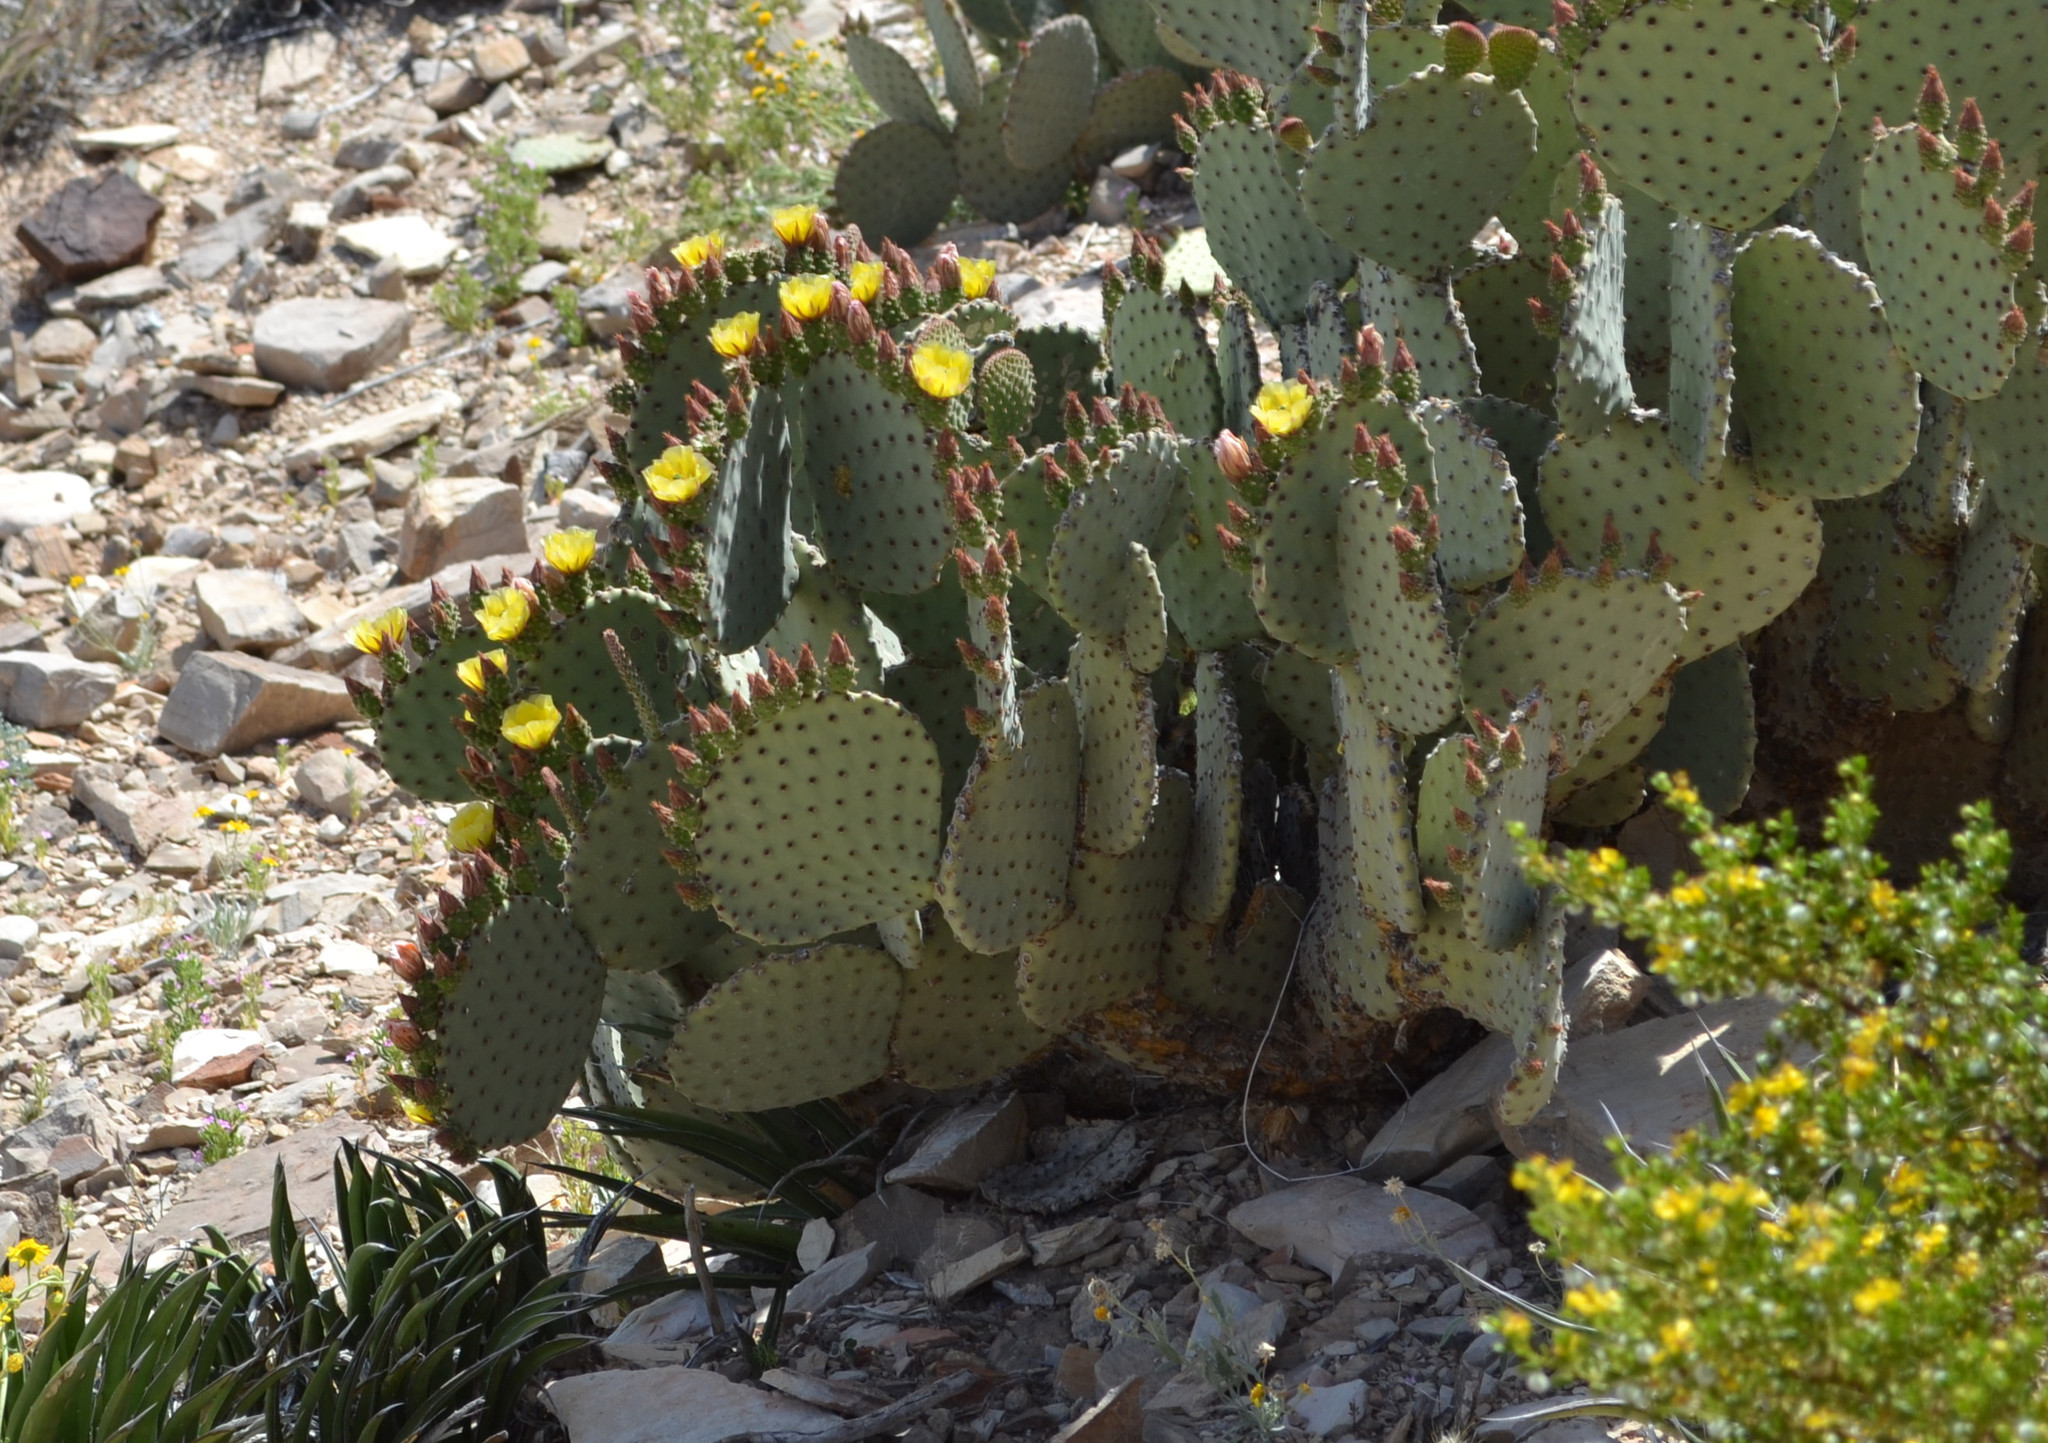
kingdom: Plantae
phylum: Tracheophyta
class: Magnoliopsida
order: Caryophyllales
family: Cactaceae
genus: Opuntia
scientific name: Opuntia rufida
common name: Blind pricklypear
